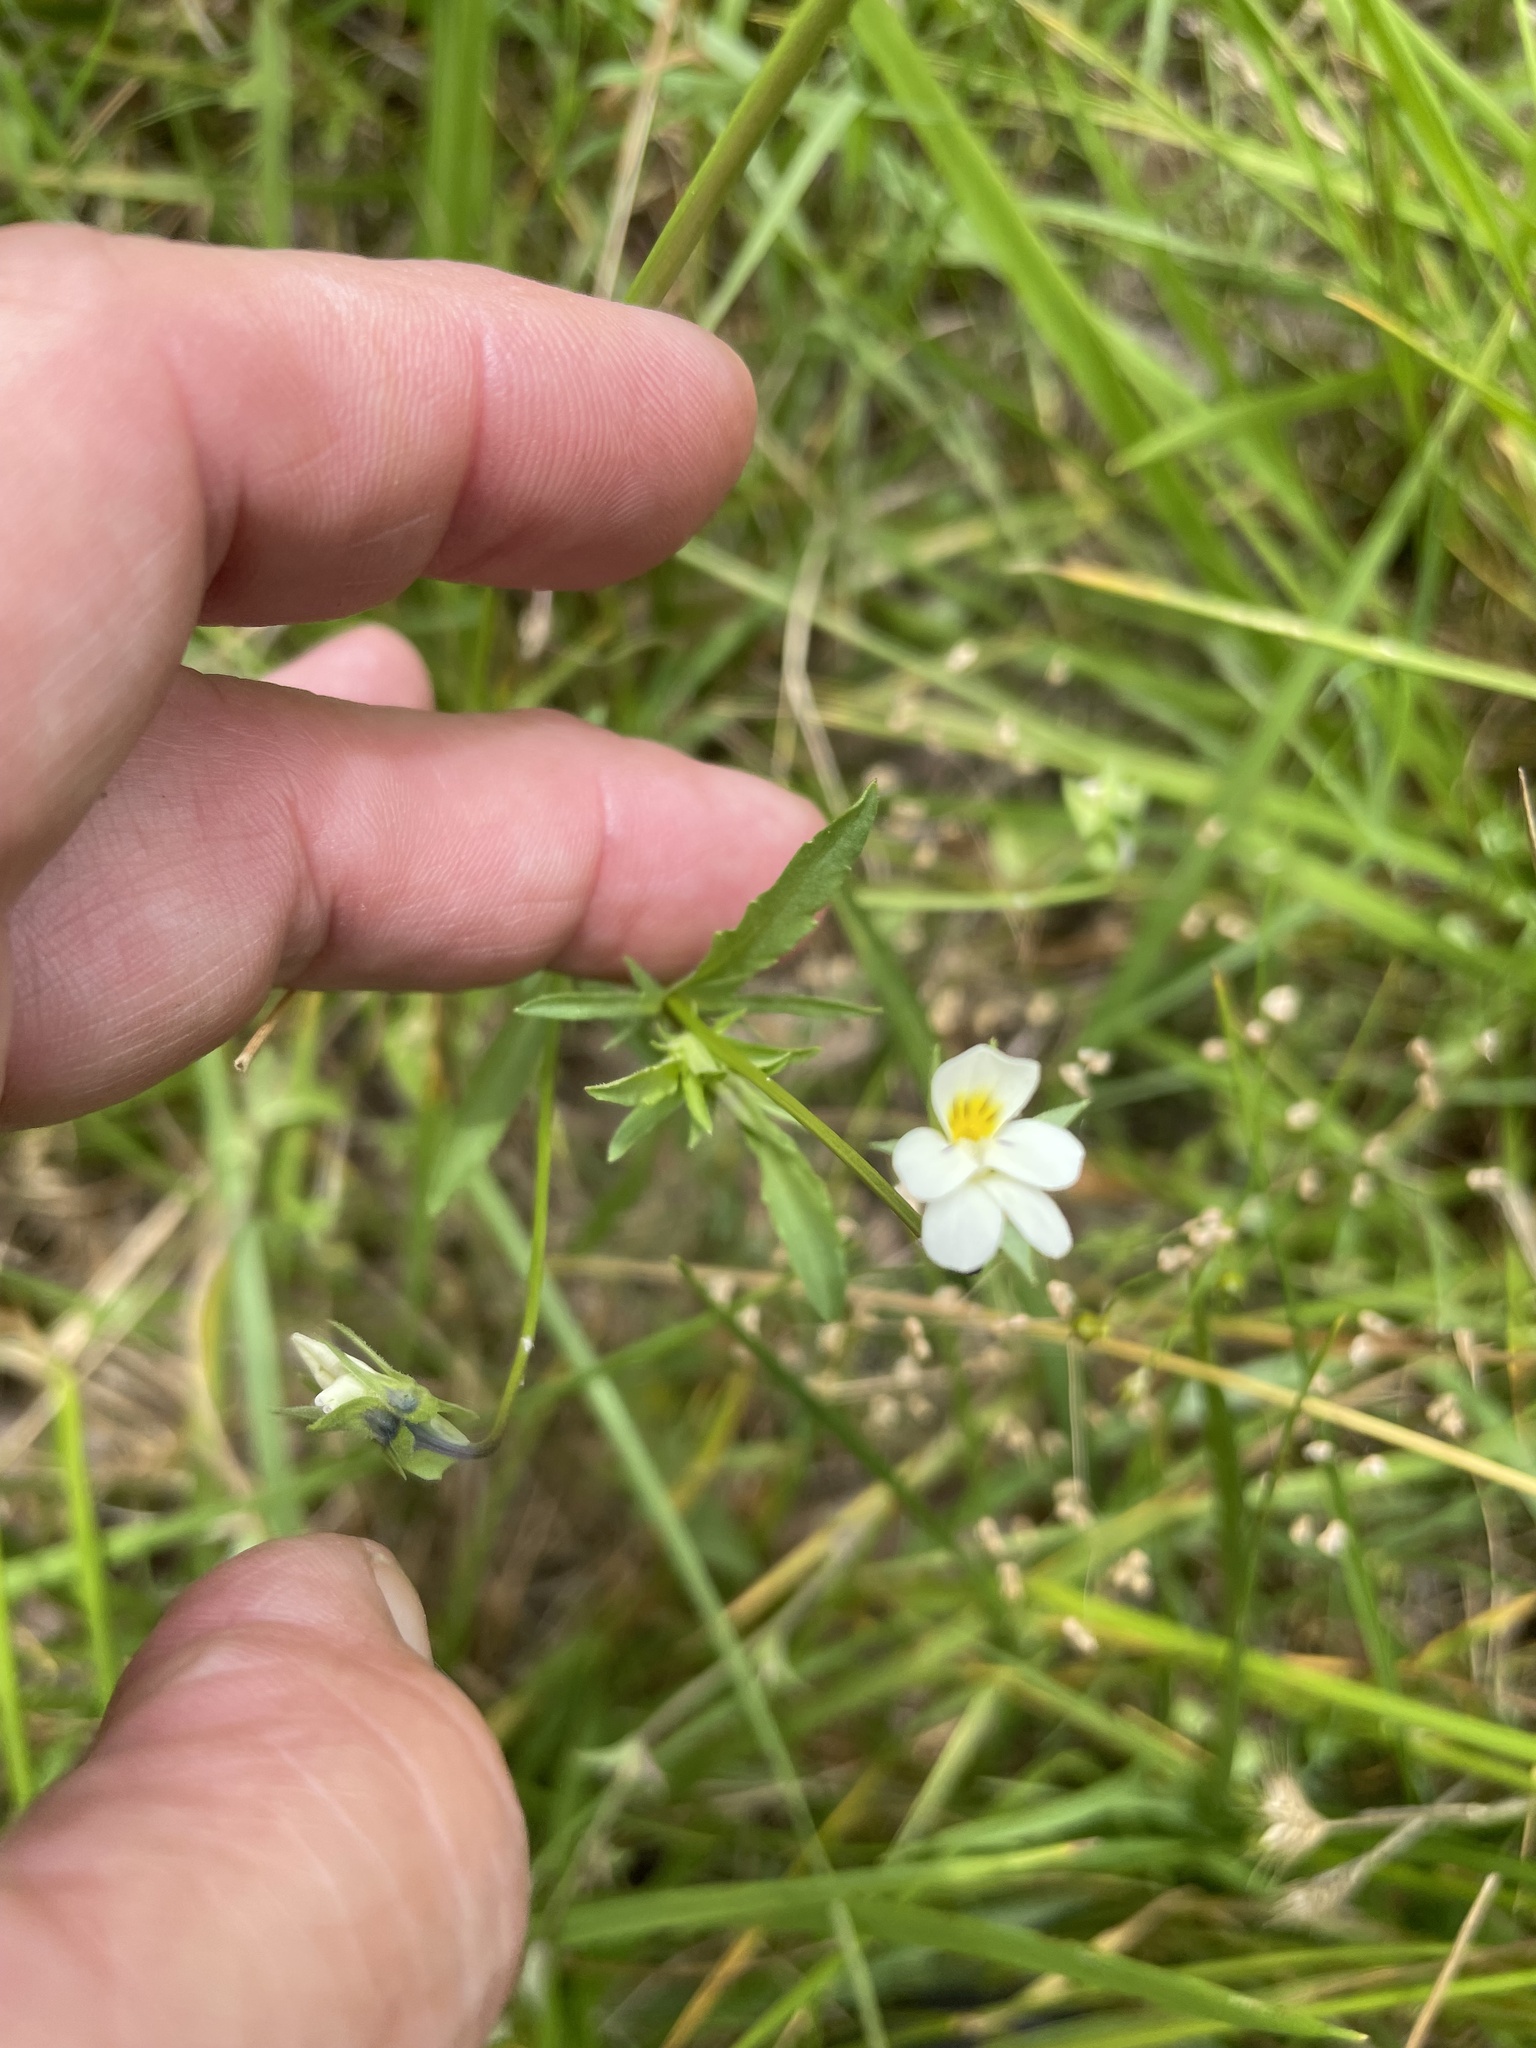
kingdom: Plantae
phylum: Tracheophyta
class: Magnoliopsida
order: Malpighiales
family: Violaceae
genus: Viola
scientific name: Viola arvensis
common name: Field pansy
